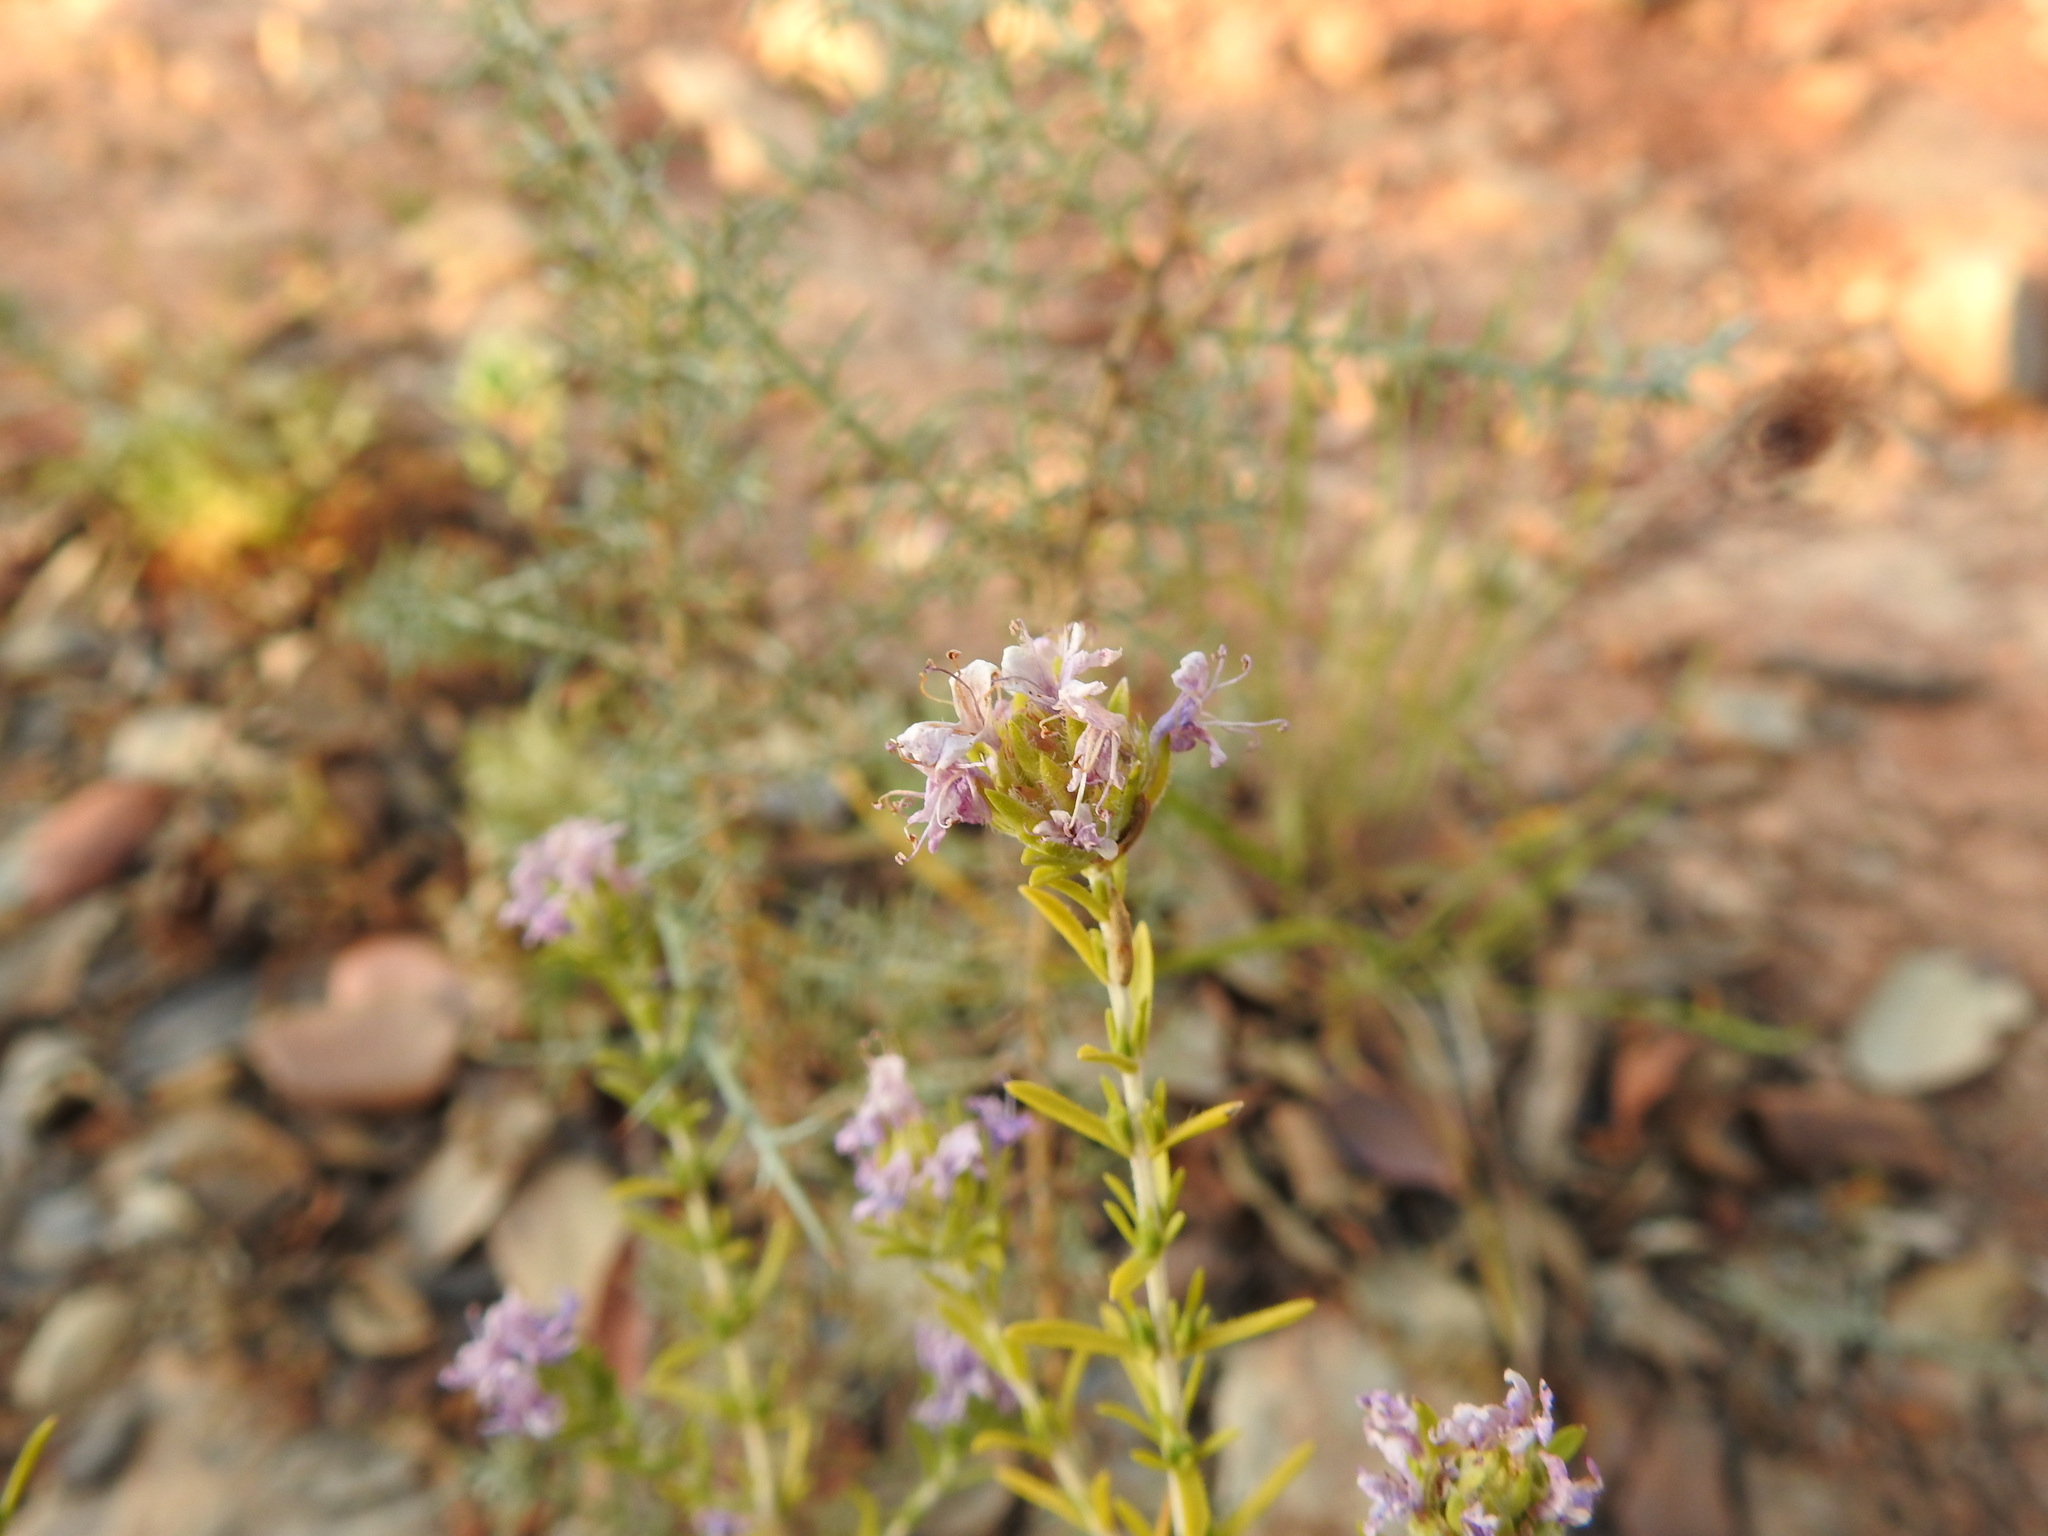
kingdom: Plantae
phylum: Tracheophyta
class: Magnoliopsida
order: Lamiales
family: Lamiaceae
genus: Thymbra
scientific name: Thymbra capitata
